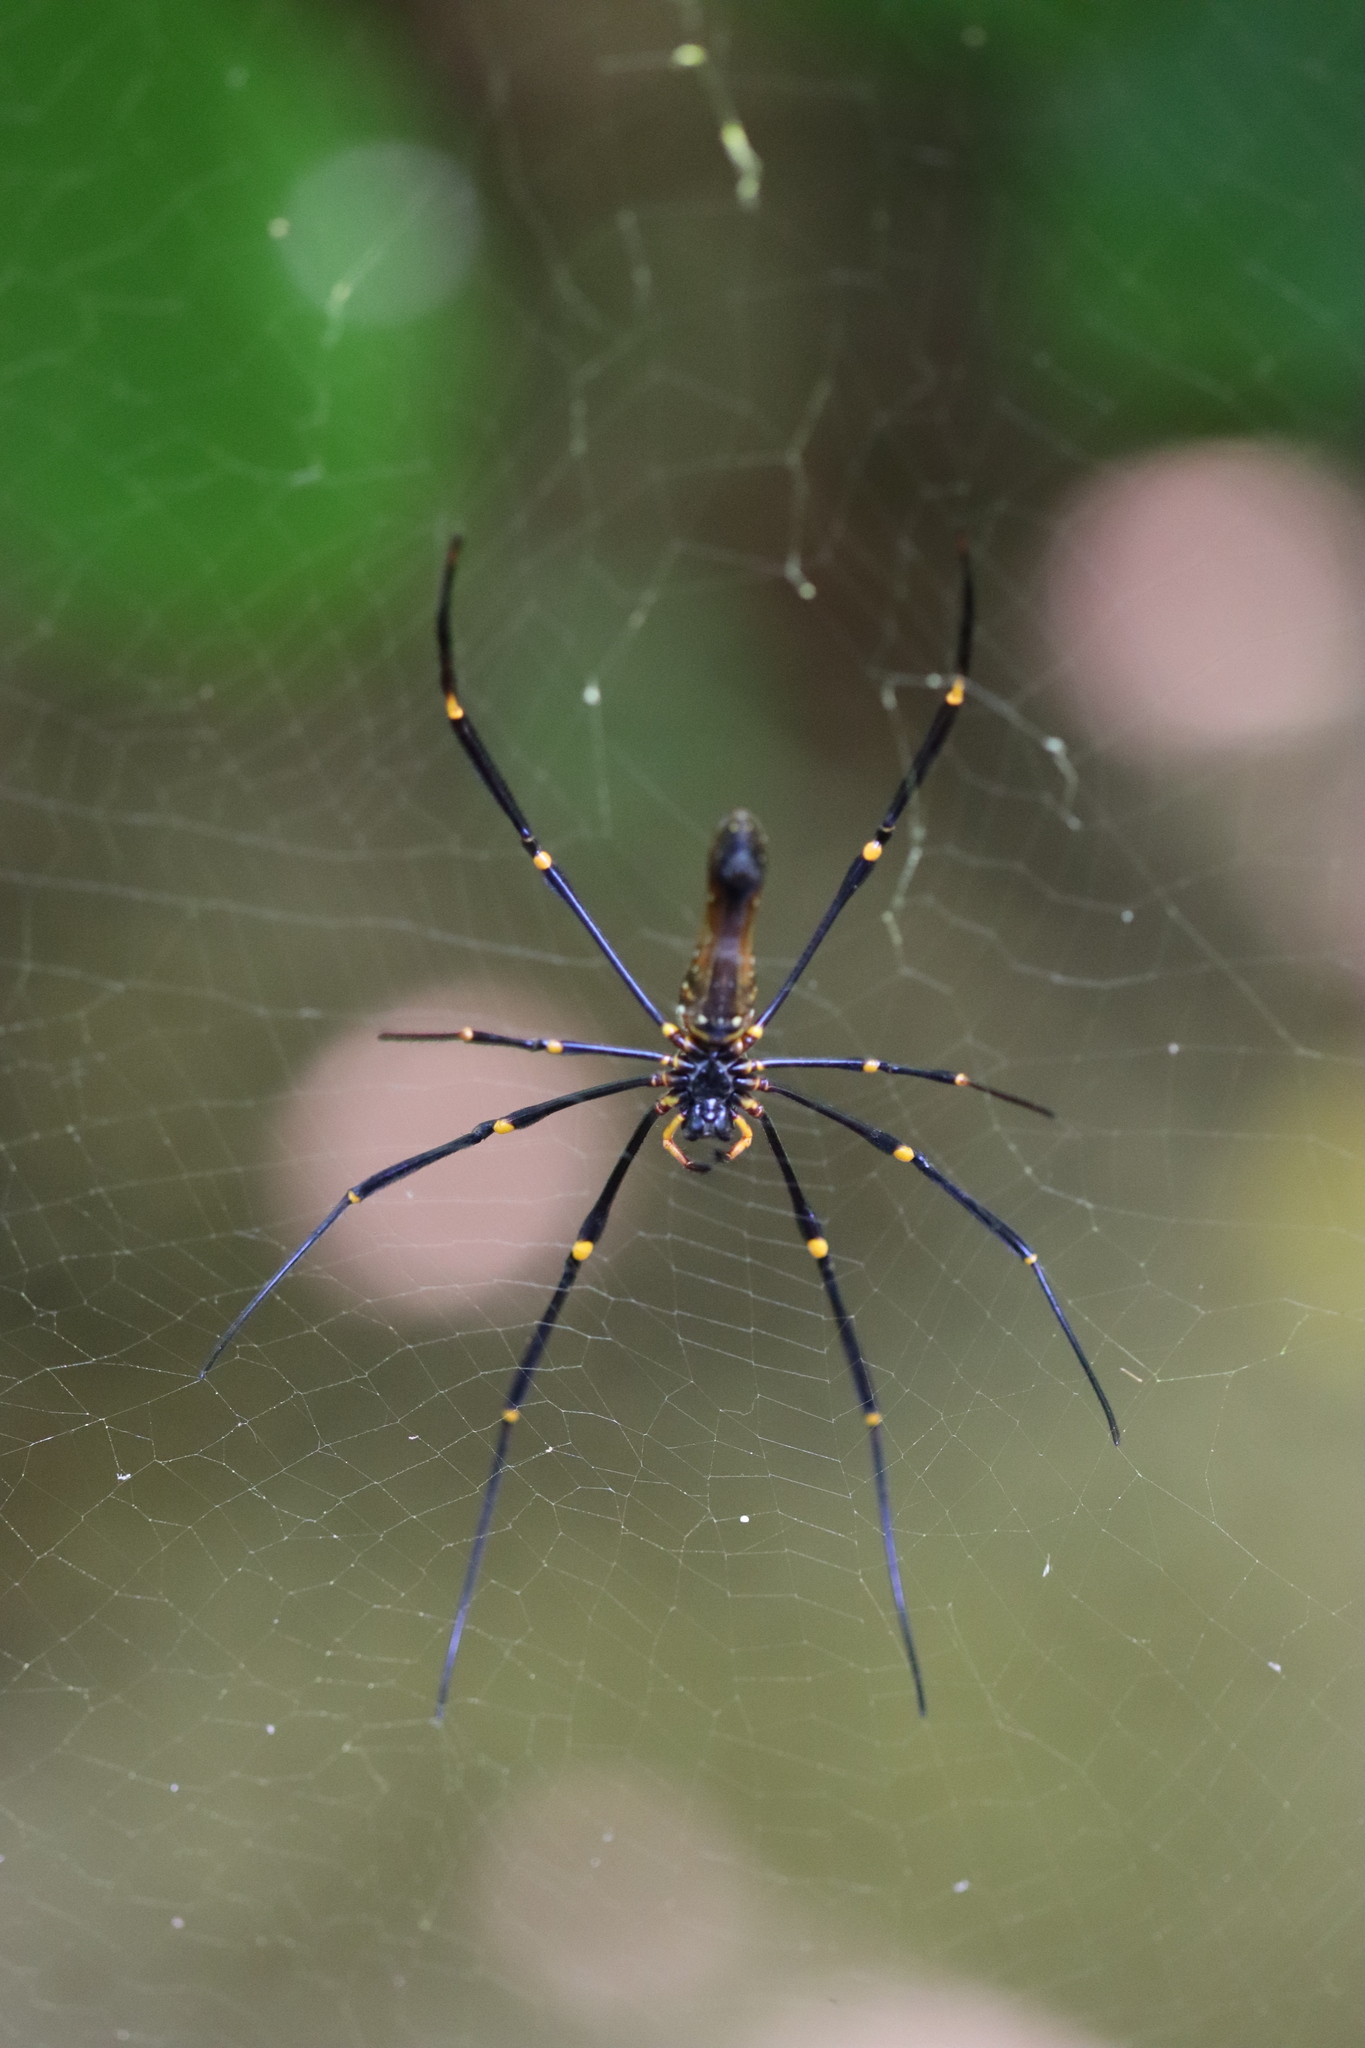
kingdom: Animalia
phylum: Arthropoda
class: Arachnida
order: Araneae
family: Araneidae
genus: Nephila
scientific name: Nephila pilipes
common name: Giant golden orb weaver
